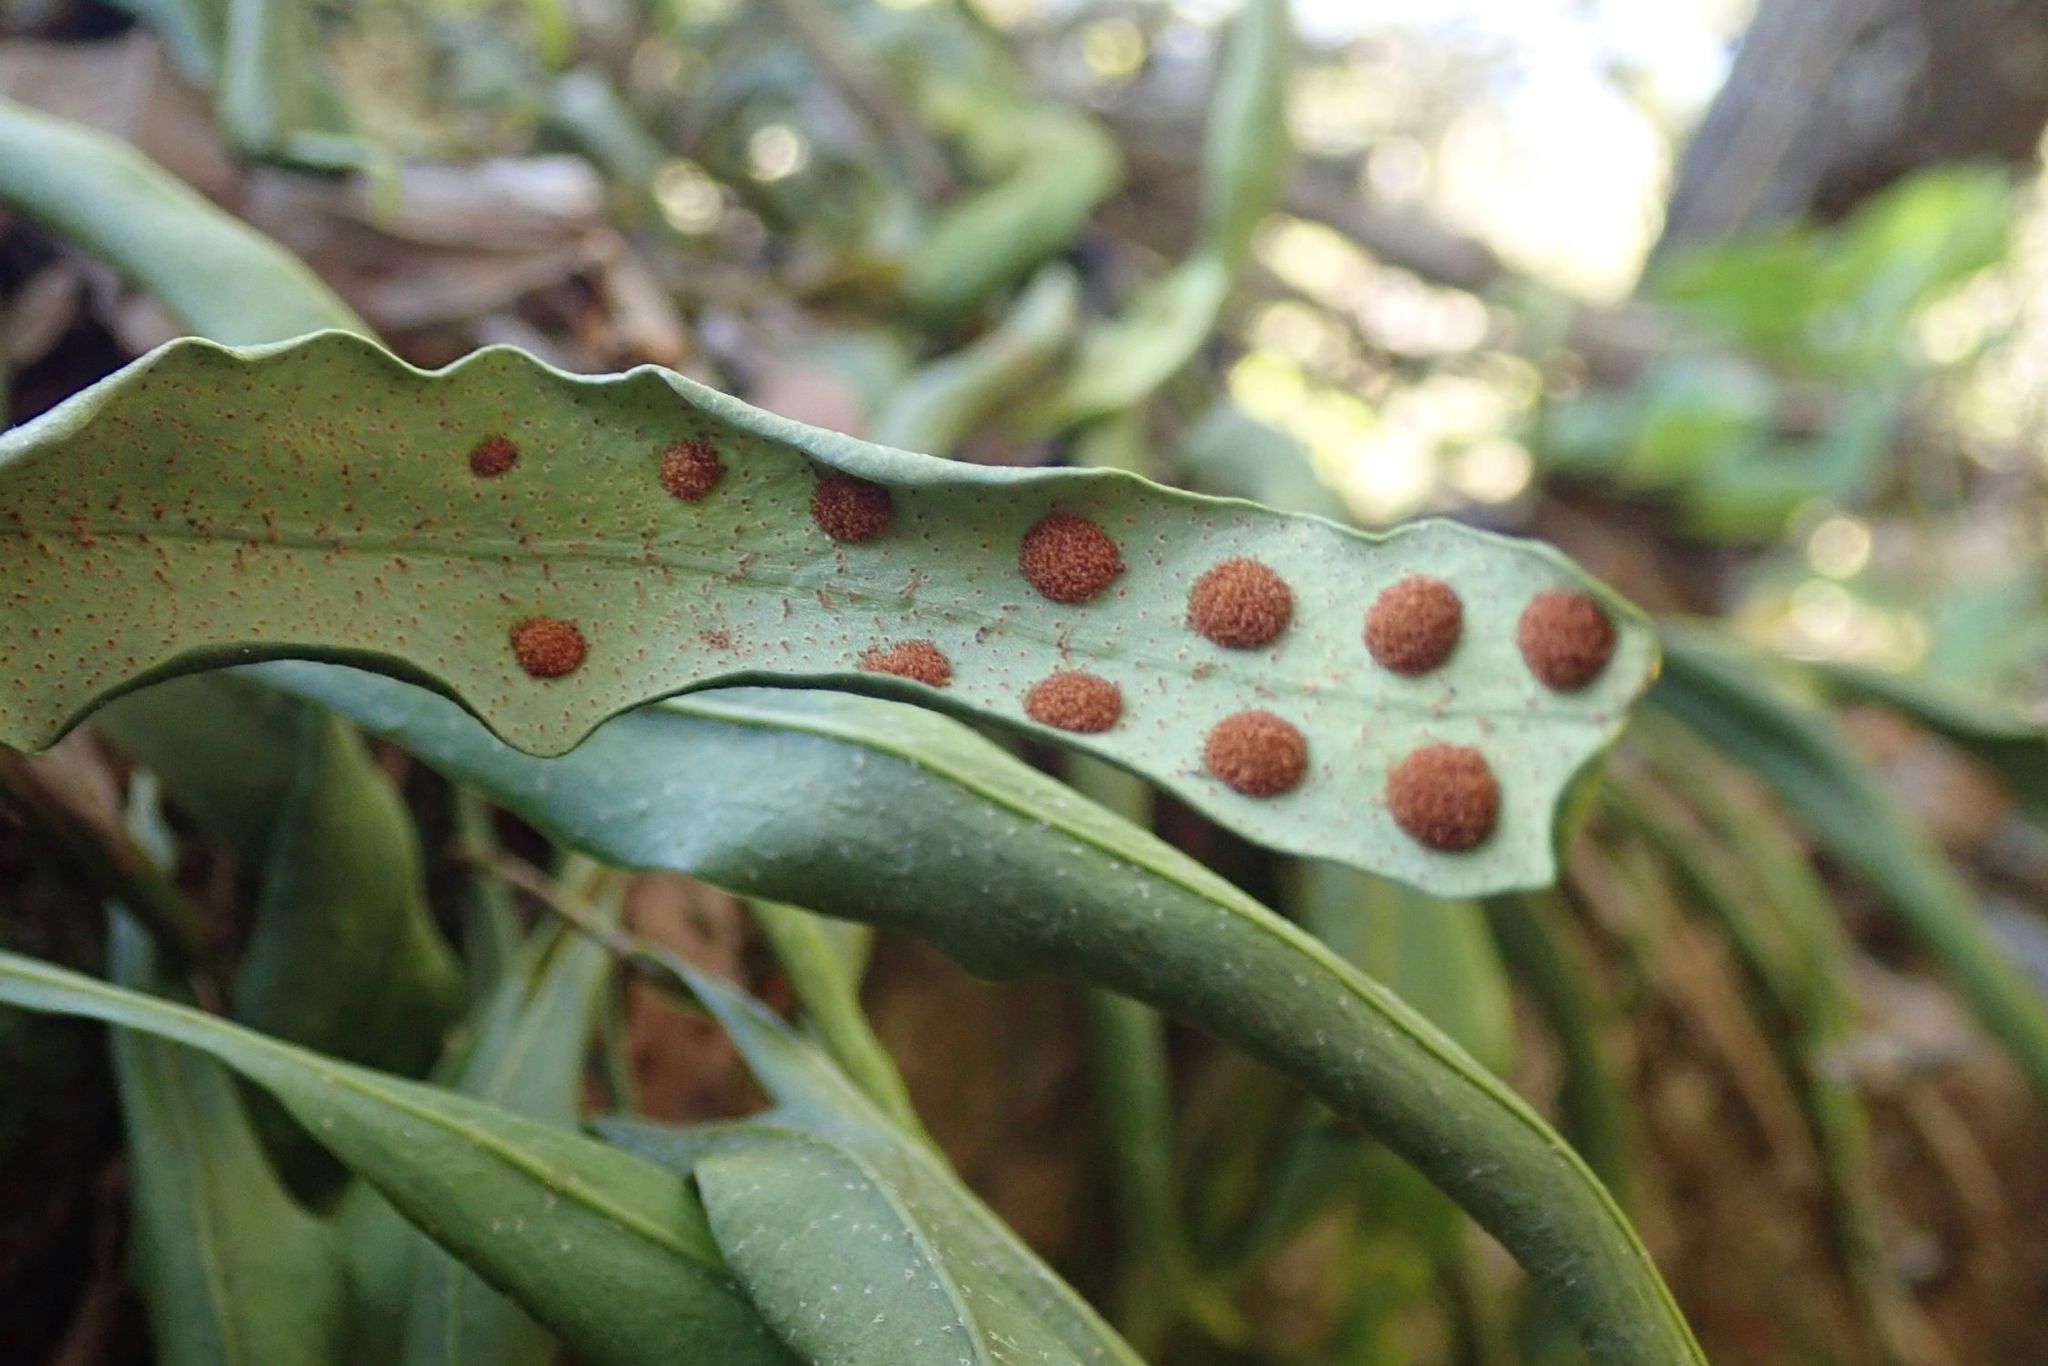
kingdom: Plantae
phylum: Tracheophyta
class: Polypodiopsida
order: Polypodiales
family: Polypodiaceae
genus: Pleopeltis
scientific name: Pleopeltis macrocarpa
